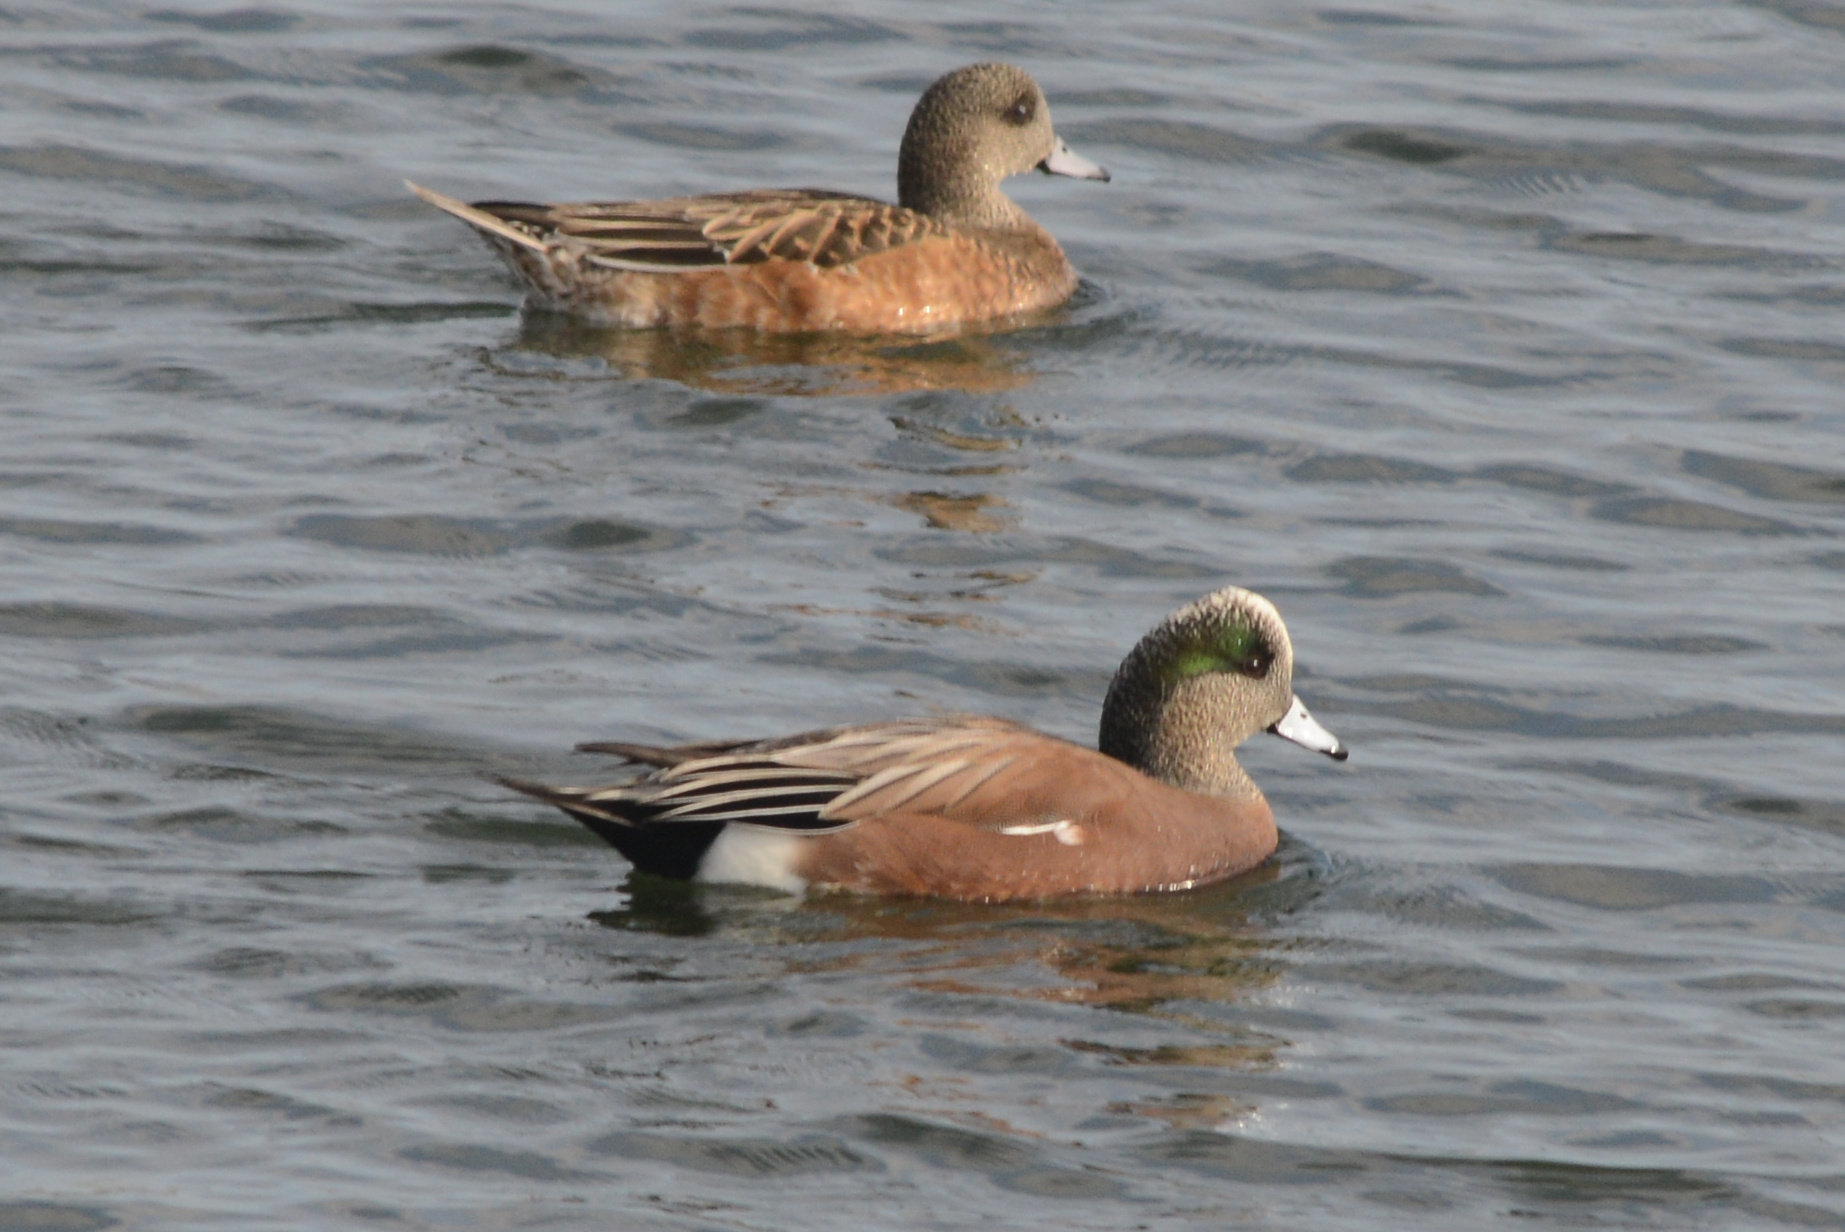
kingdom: Animalia
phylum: Chordata
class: Aves
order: Anseriformes
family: Anatidae
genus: Mareca
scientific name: Mareca americana
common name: American wigeon
